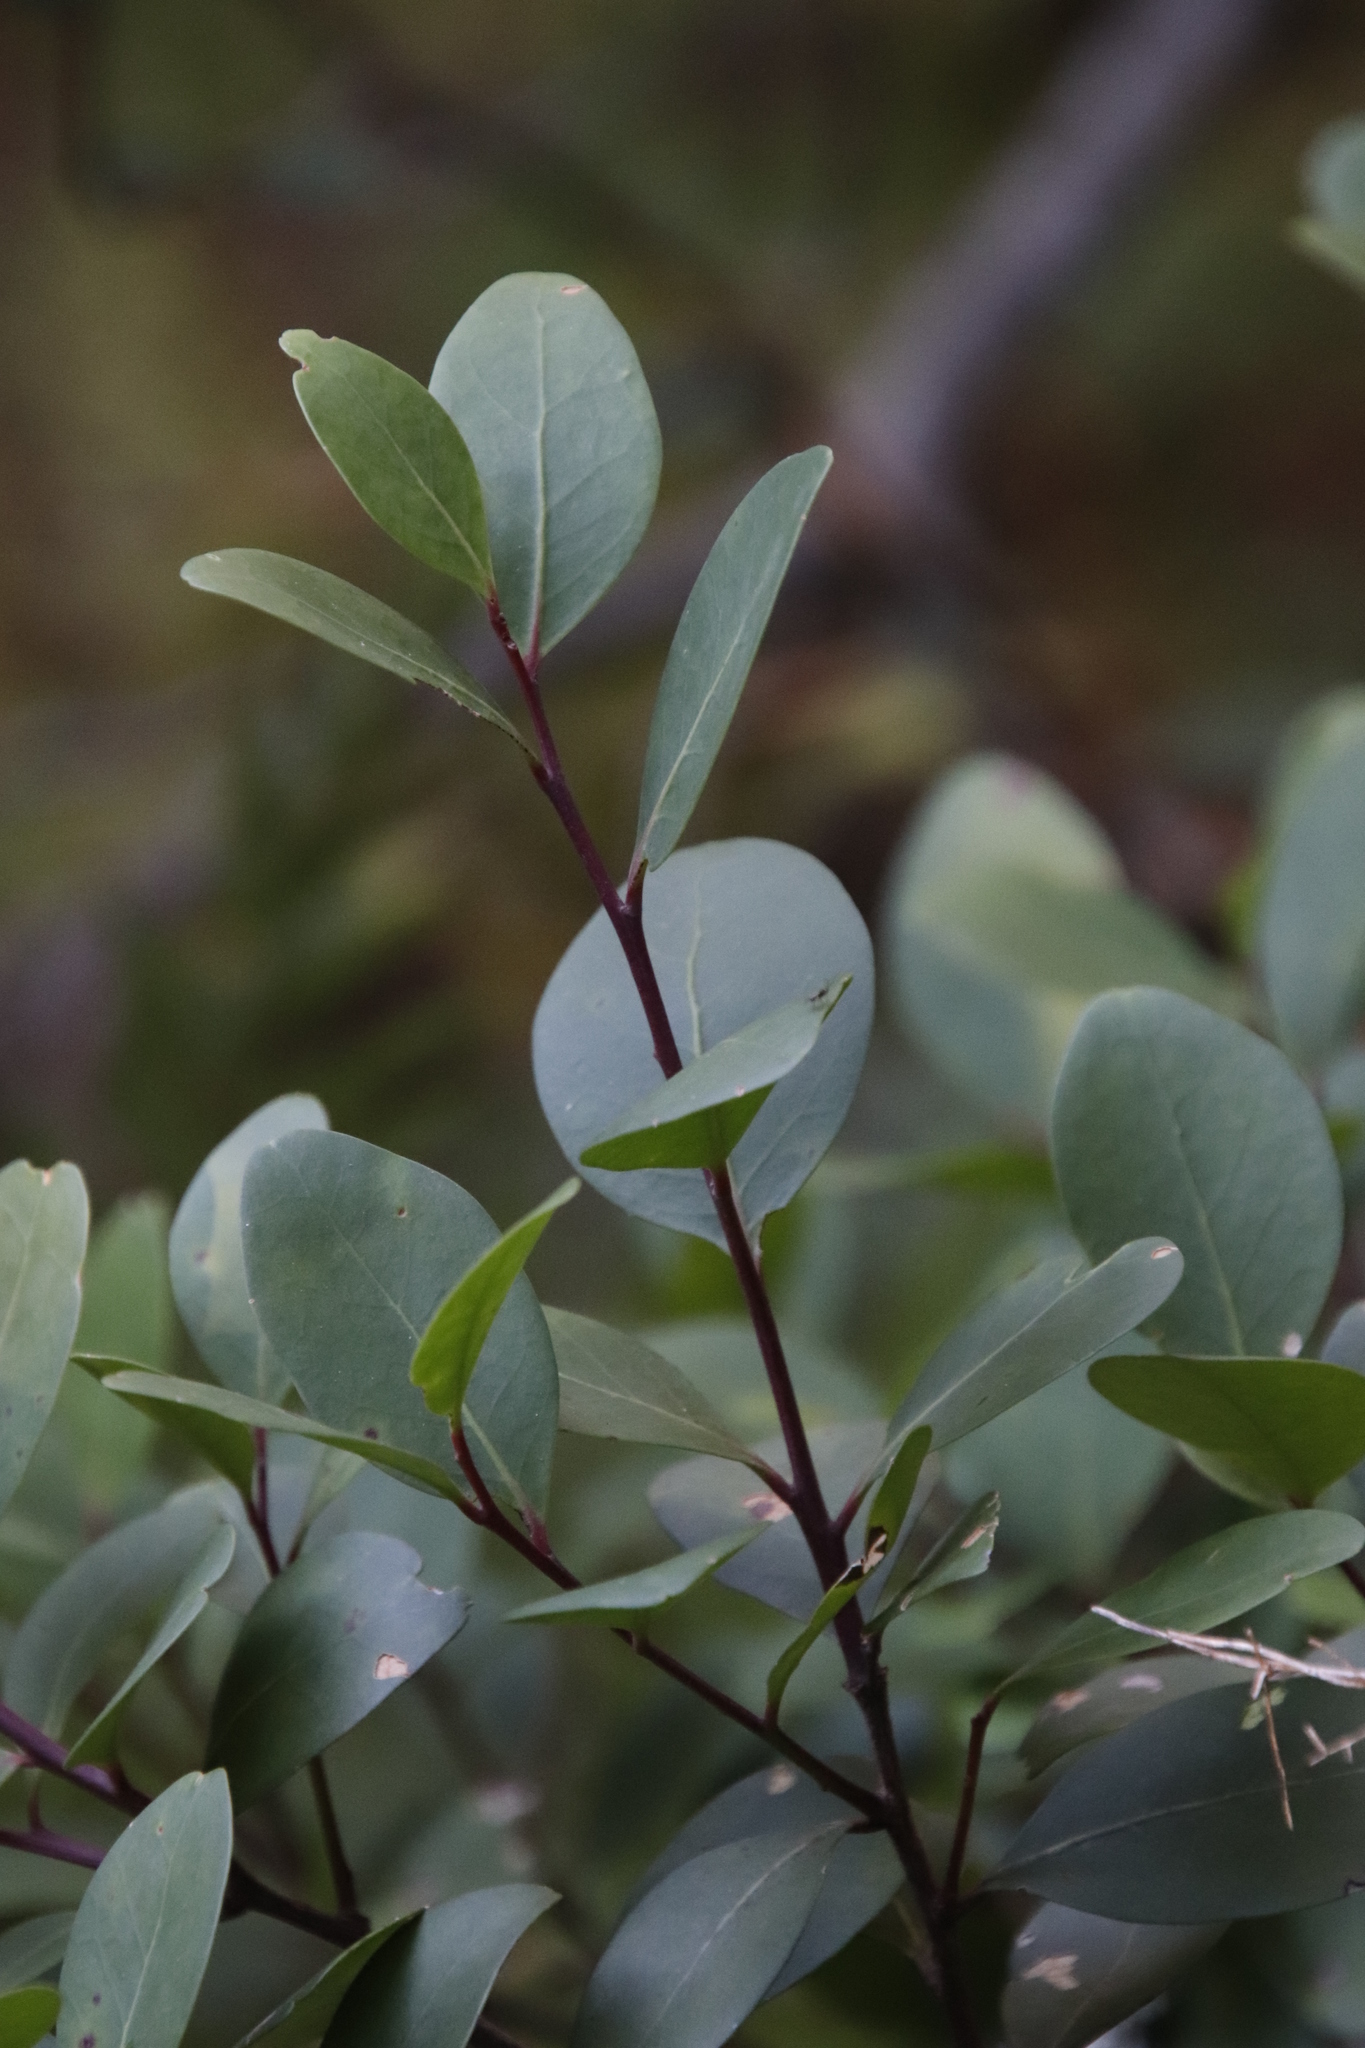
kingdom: Plantae
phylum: Tracheophyta
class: Magnoliopsida
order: Celastrales
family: Celastraceae
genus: Pterocelastrus
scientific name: Pterocelastrus tricuspidatus
